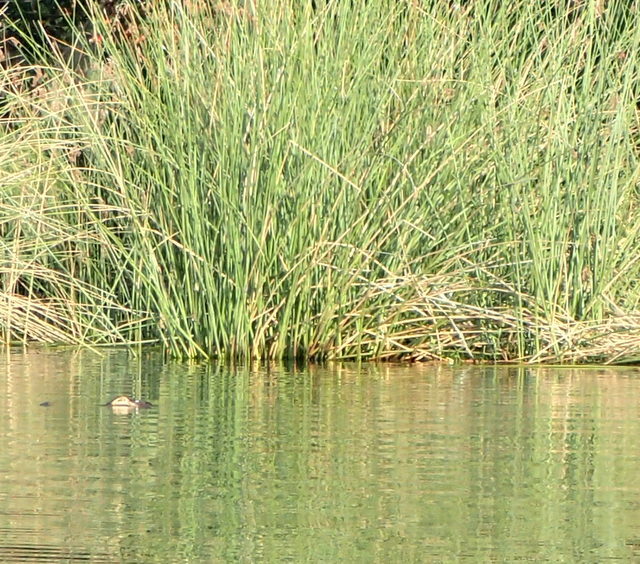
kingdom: Animalia
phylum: Chordata
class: Crocodylia
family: Alligatoridae
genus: Alligator
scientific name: Alligator mississippiensis
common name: American alligator
